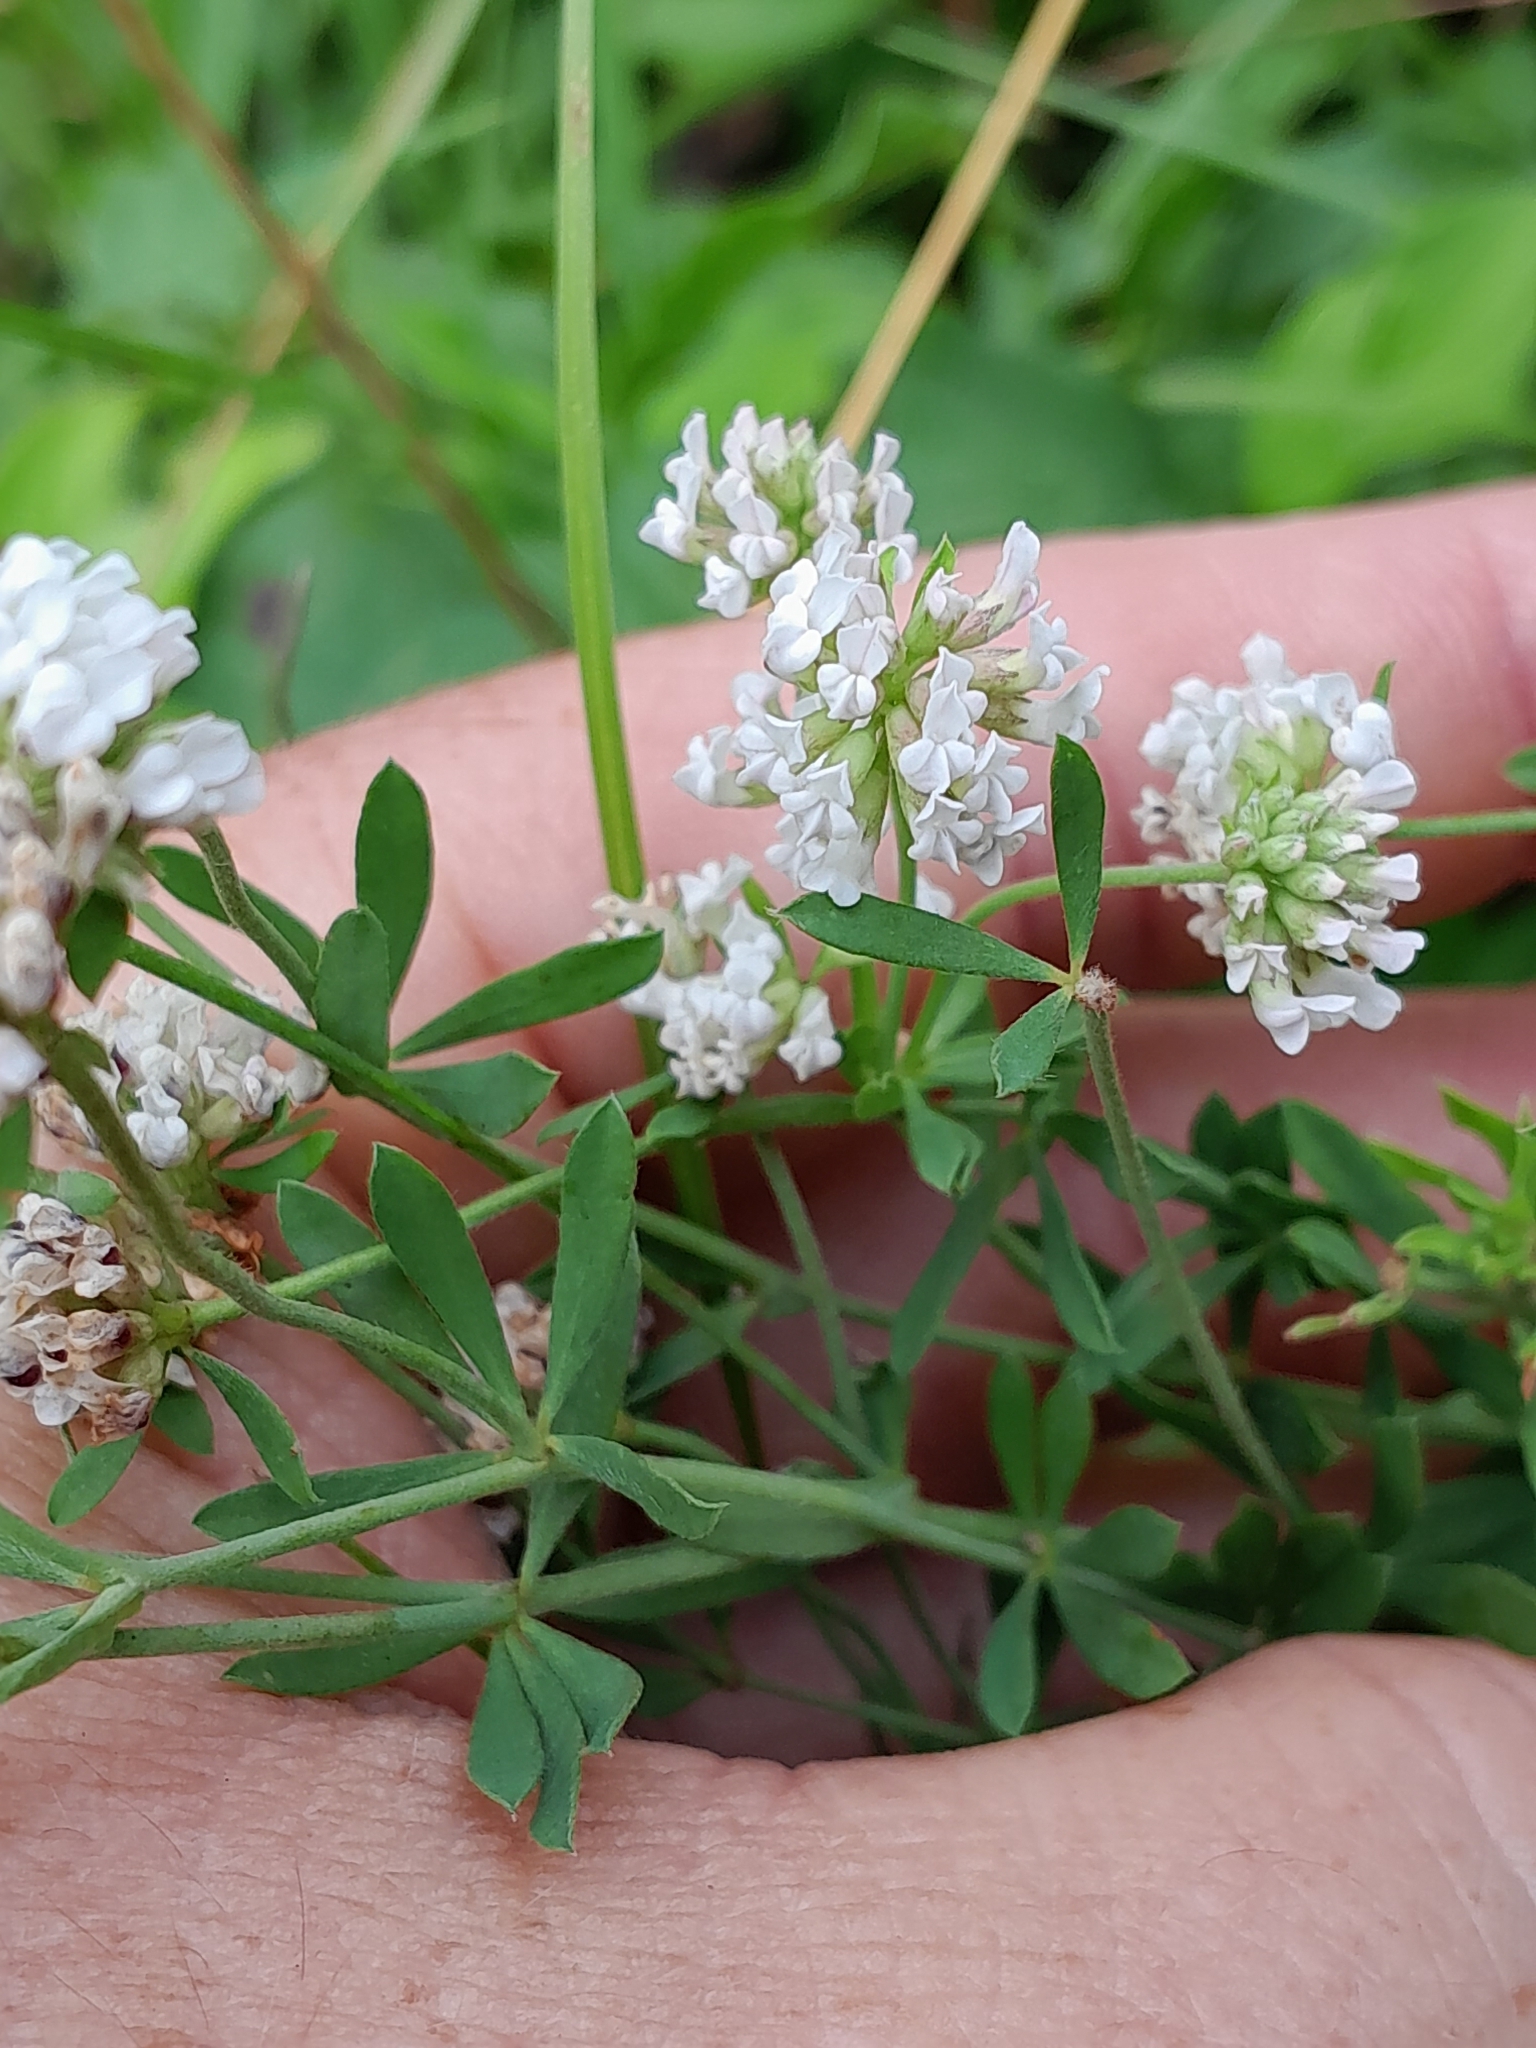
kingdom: Plantae
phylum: Tracheophyta
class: Magnoliopsida
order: Fabales
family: Fabaceae
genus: Lotus
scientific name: Lotus herbaceus
